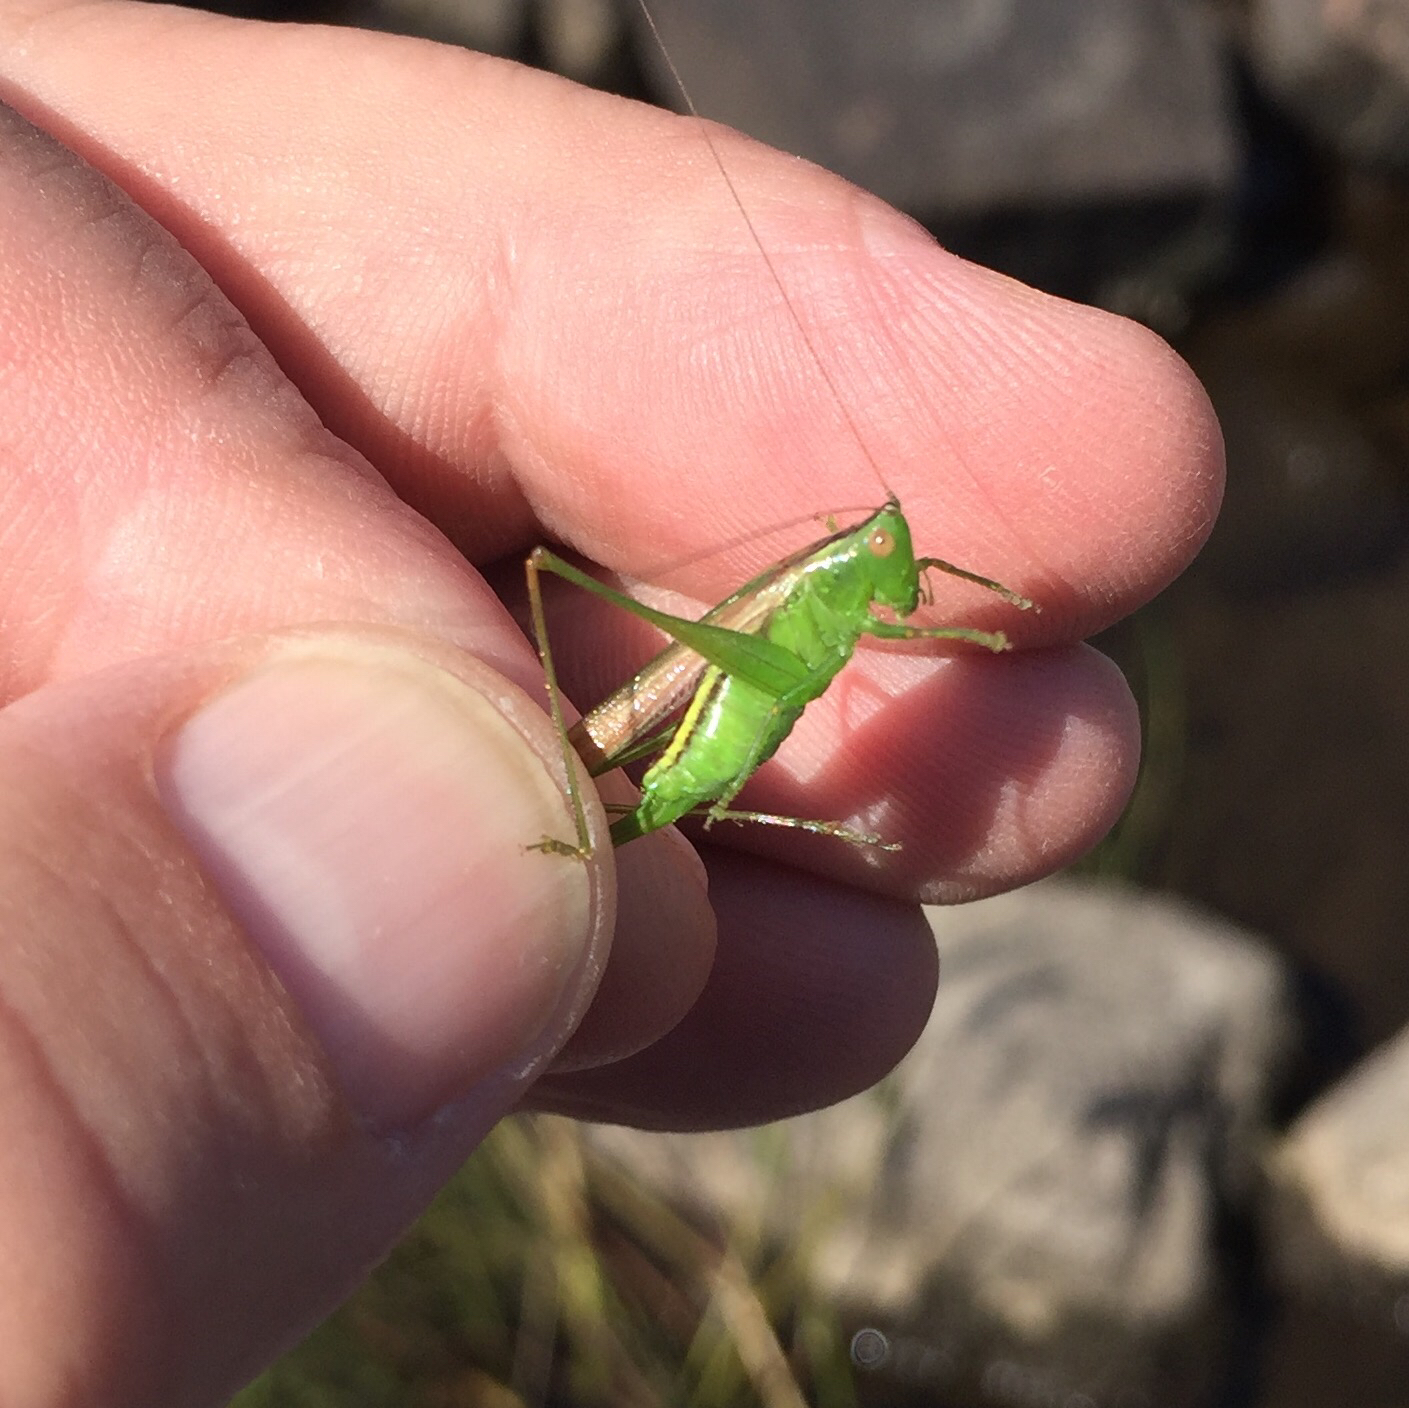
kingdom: Animalia
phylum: Arthropoda
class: Insecta
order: Orthoptera
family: Tettigoniidae
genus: Conocephalus
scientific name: Conocephalus fasciatus
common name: Slender meadow katydid
